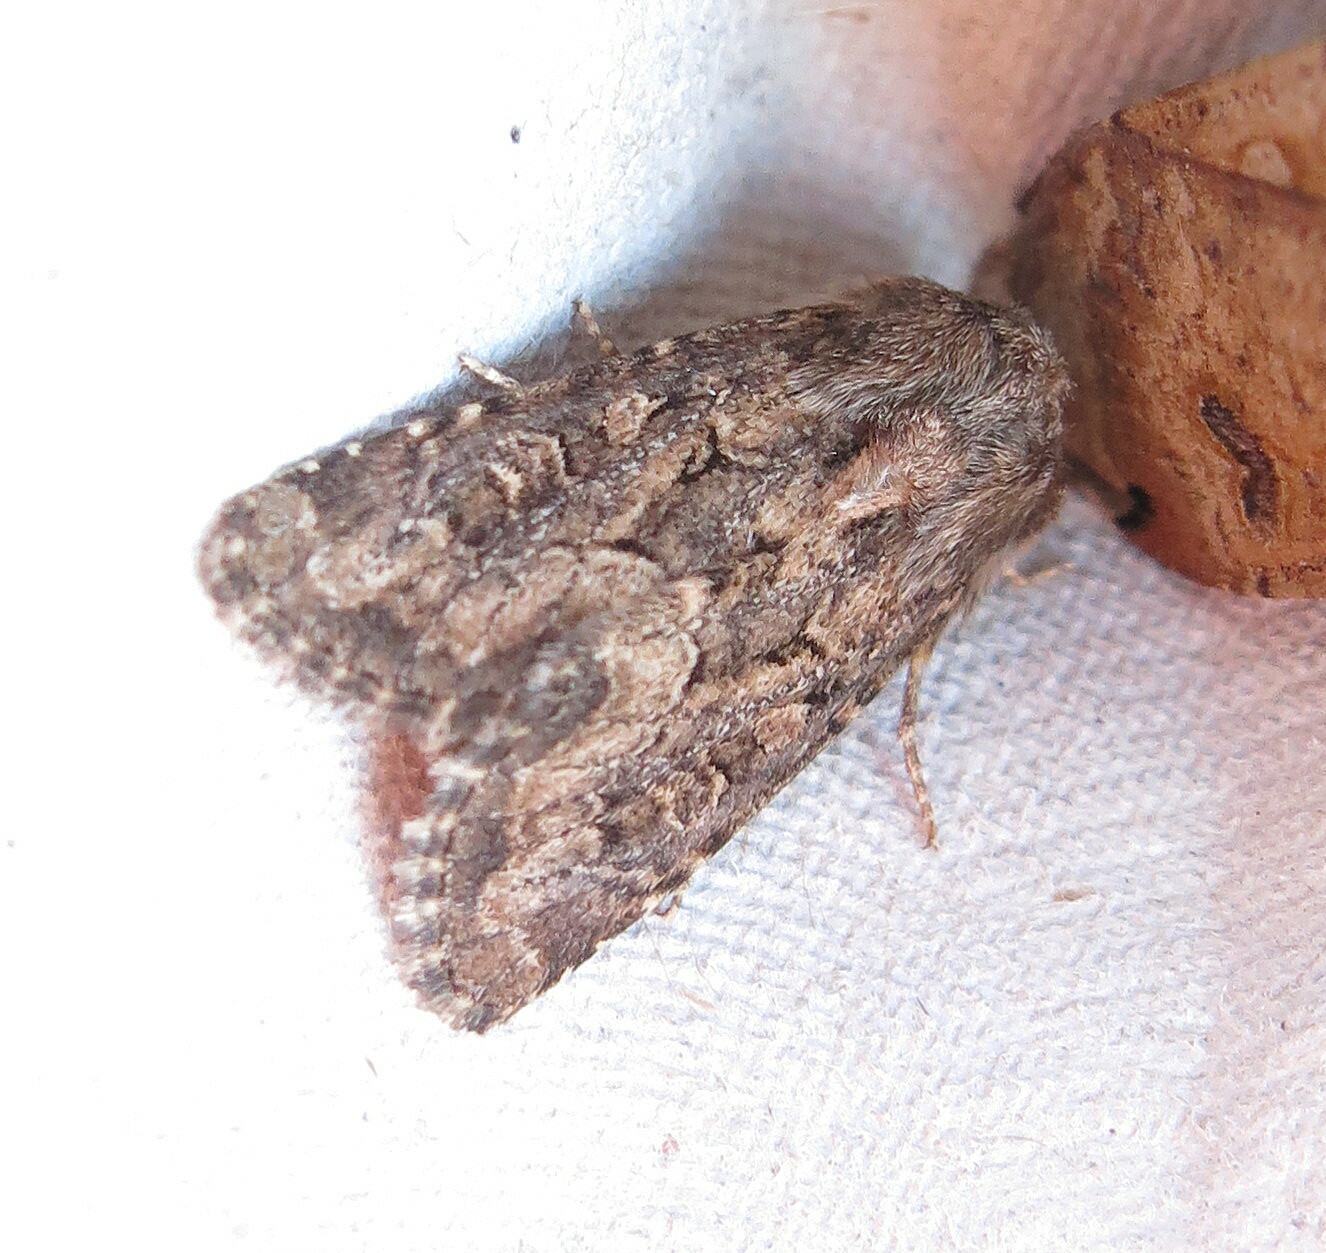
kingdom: Animalia
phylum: Arthropoda
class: Insecta
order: Lepidoptera
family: Noctuidae
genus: Luperina
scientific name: Luperina testacea
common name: Flounced rustic
